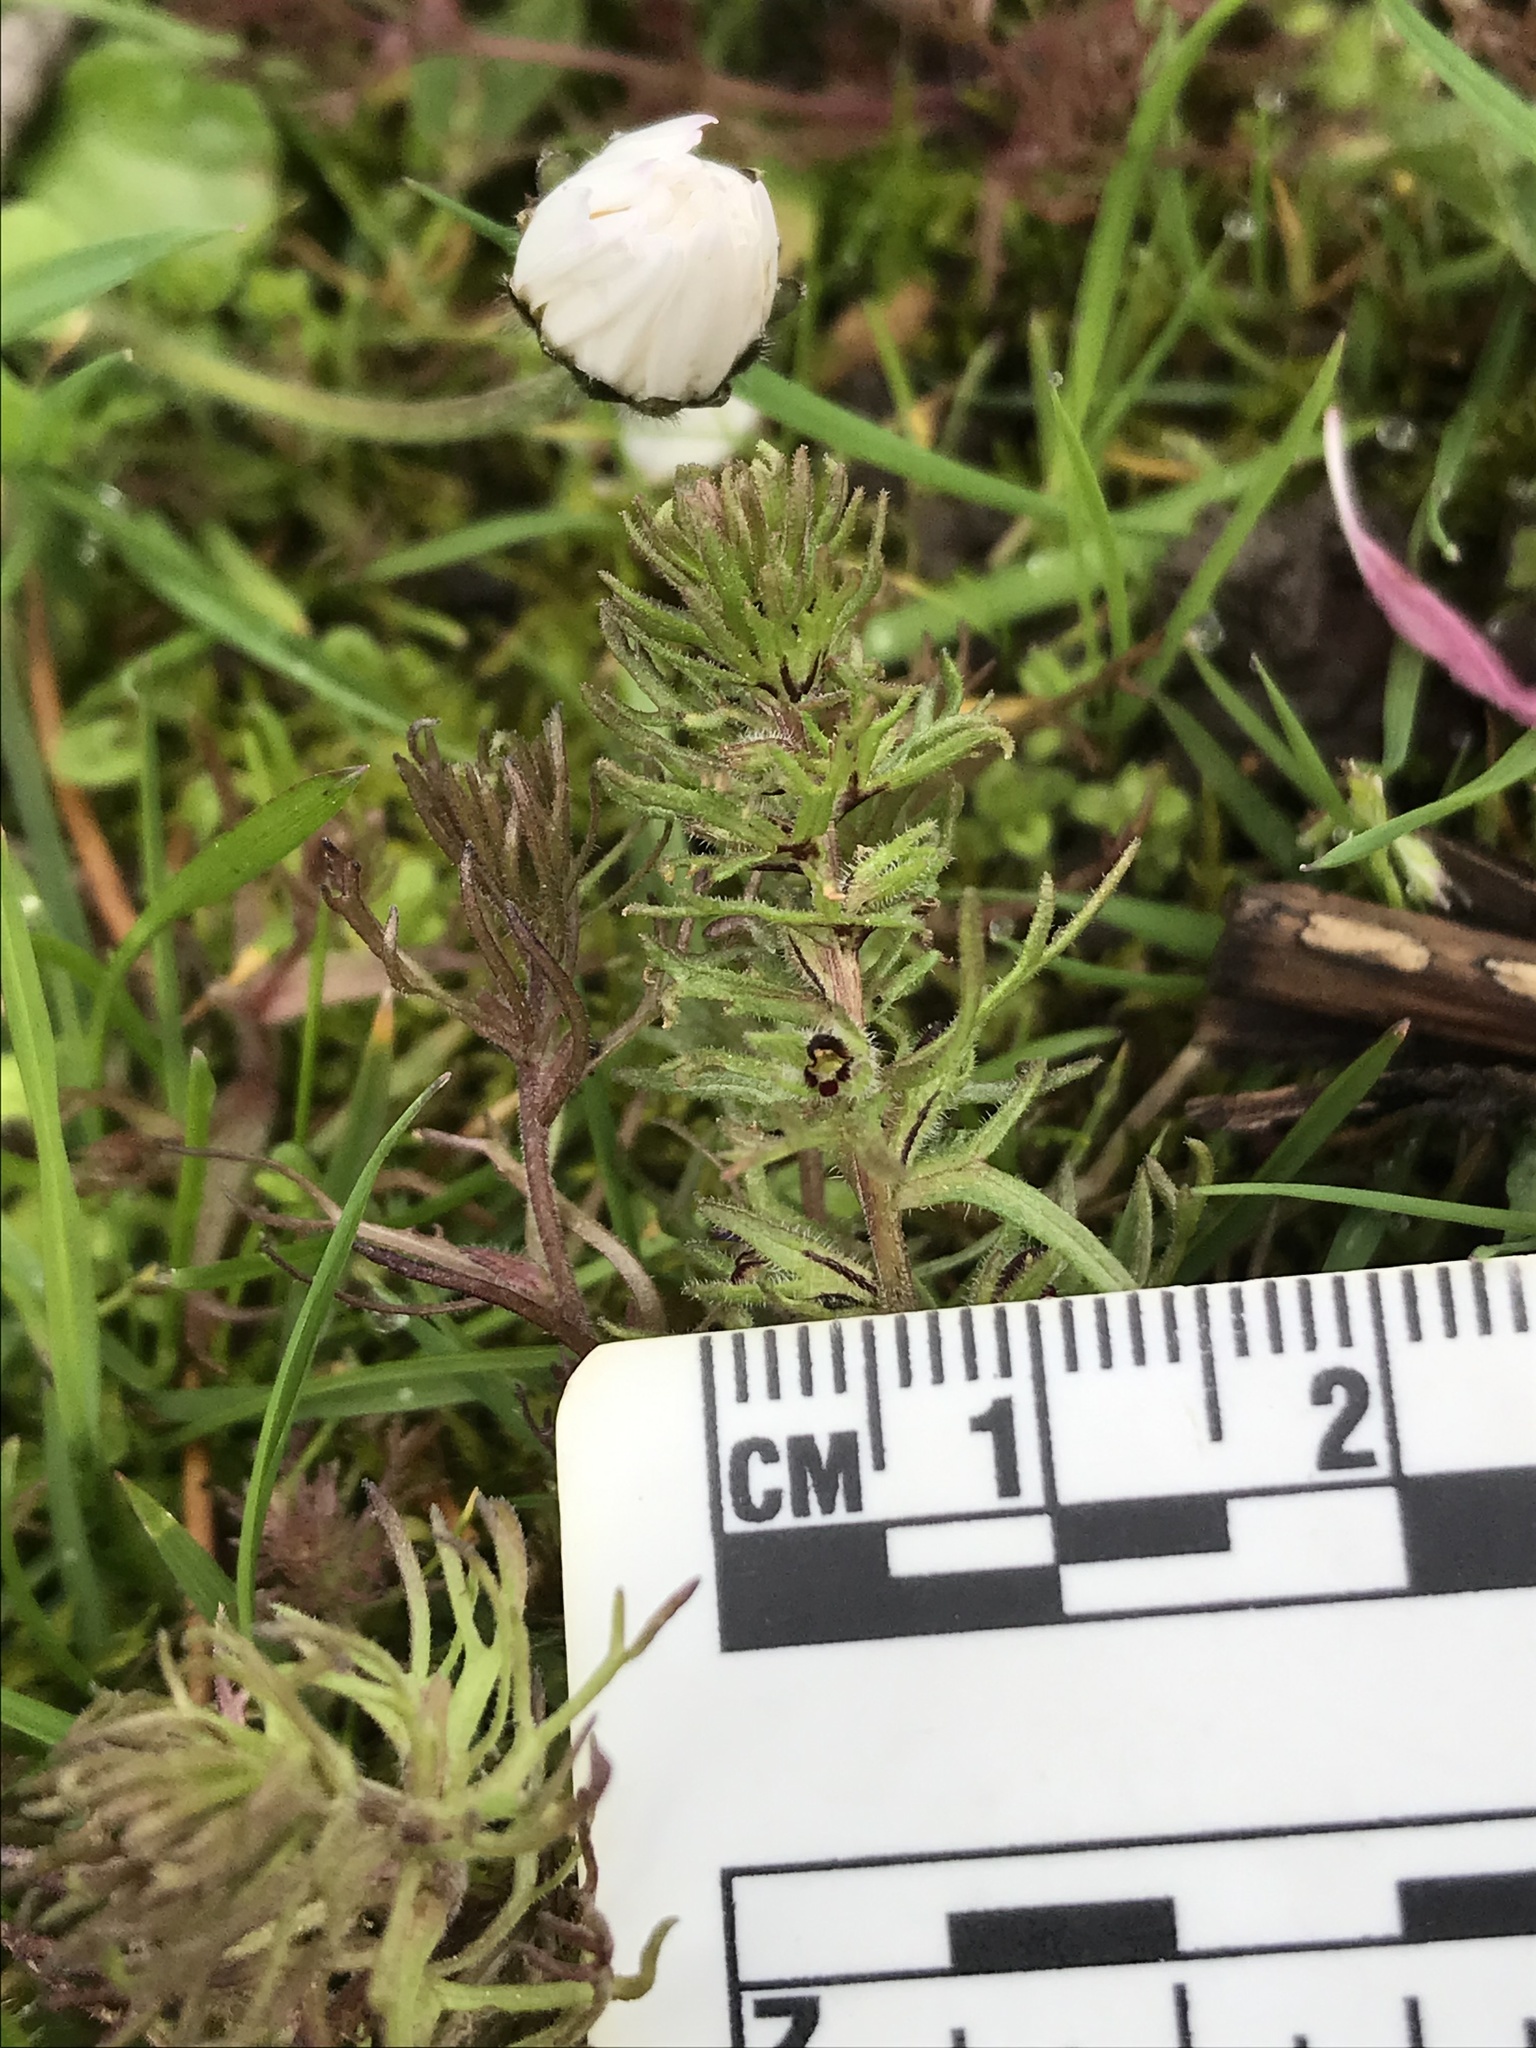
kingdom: Plantae
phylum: Tracheophyta
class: Magnoliopsida
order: Lamiales
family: Orobanchaceae
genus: Triphysaria
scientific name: Triphysaria pusilla
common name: Dwarf false owl-clover
